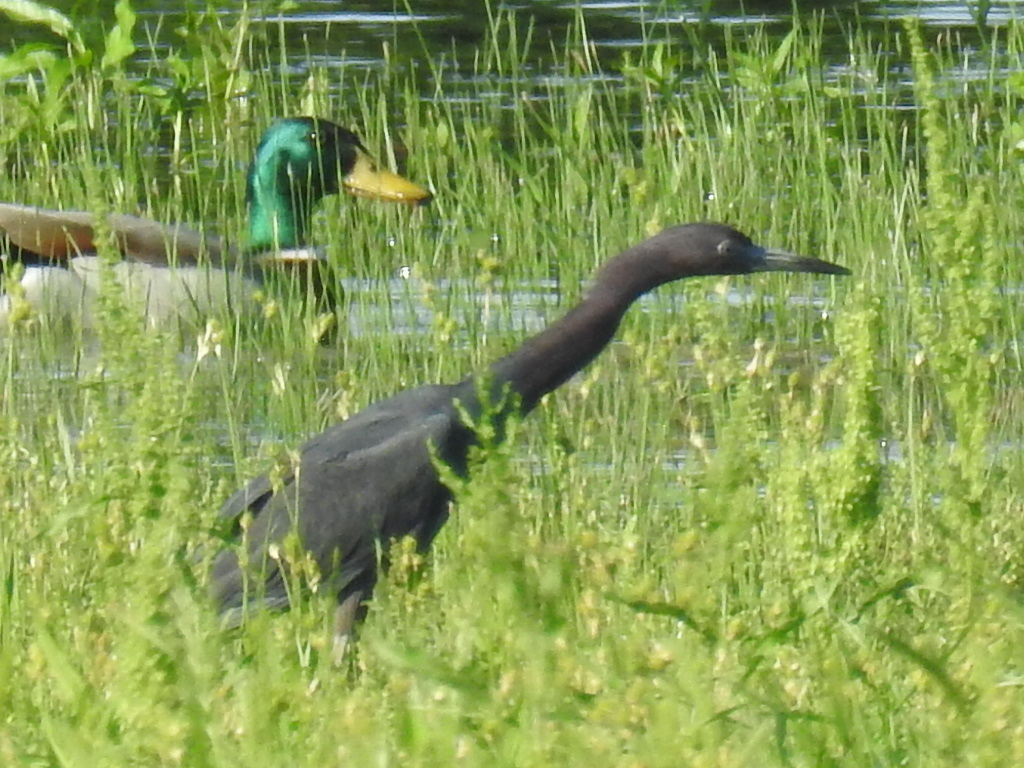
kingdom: Animalia
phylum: Chordata
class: Aves
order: Pelecaniformes
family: Ardeidae
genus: Egretta
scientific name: Egretta caerulea
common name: Little blue heron
